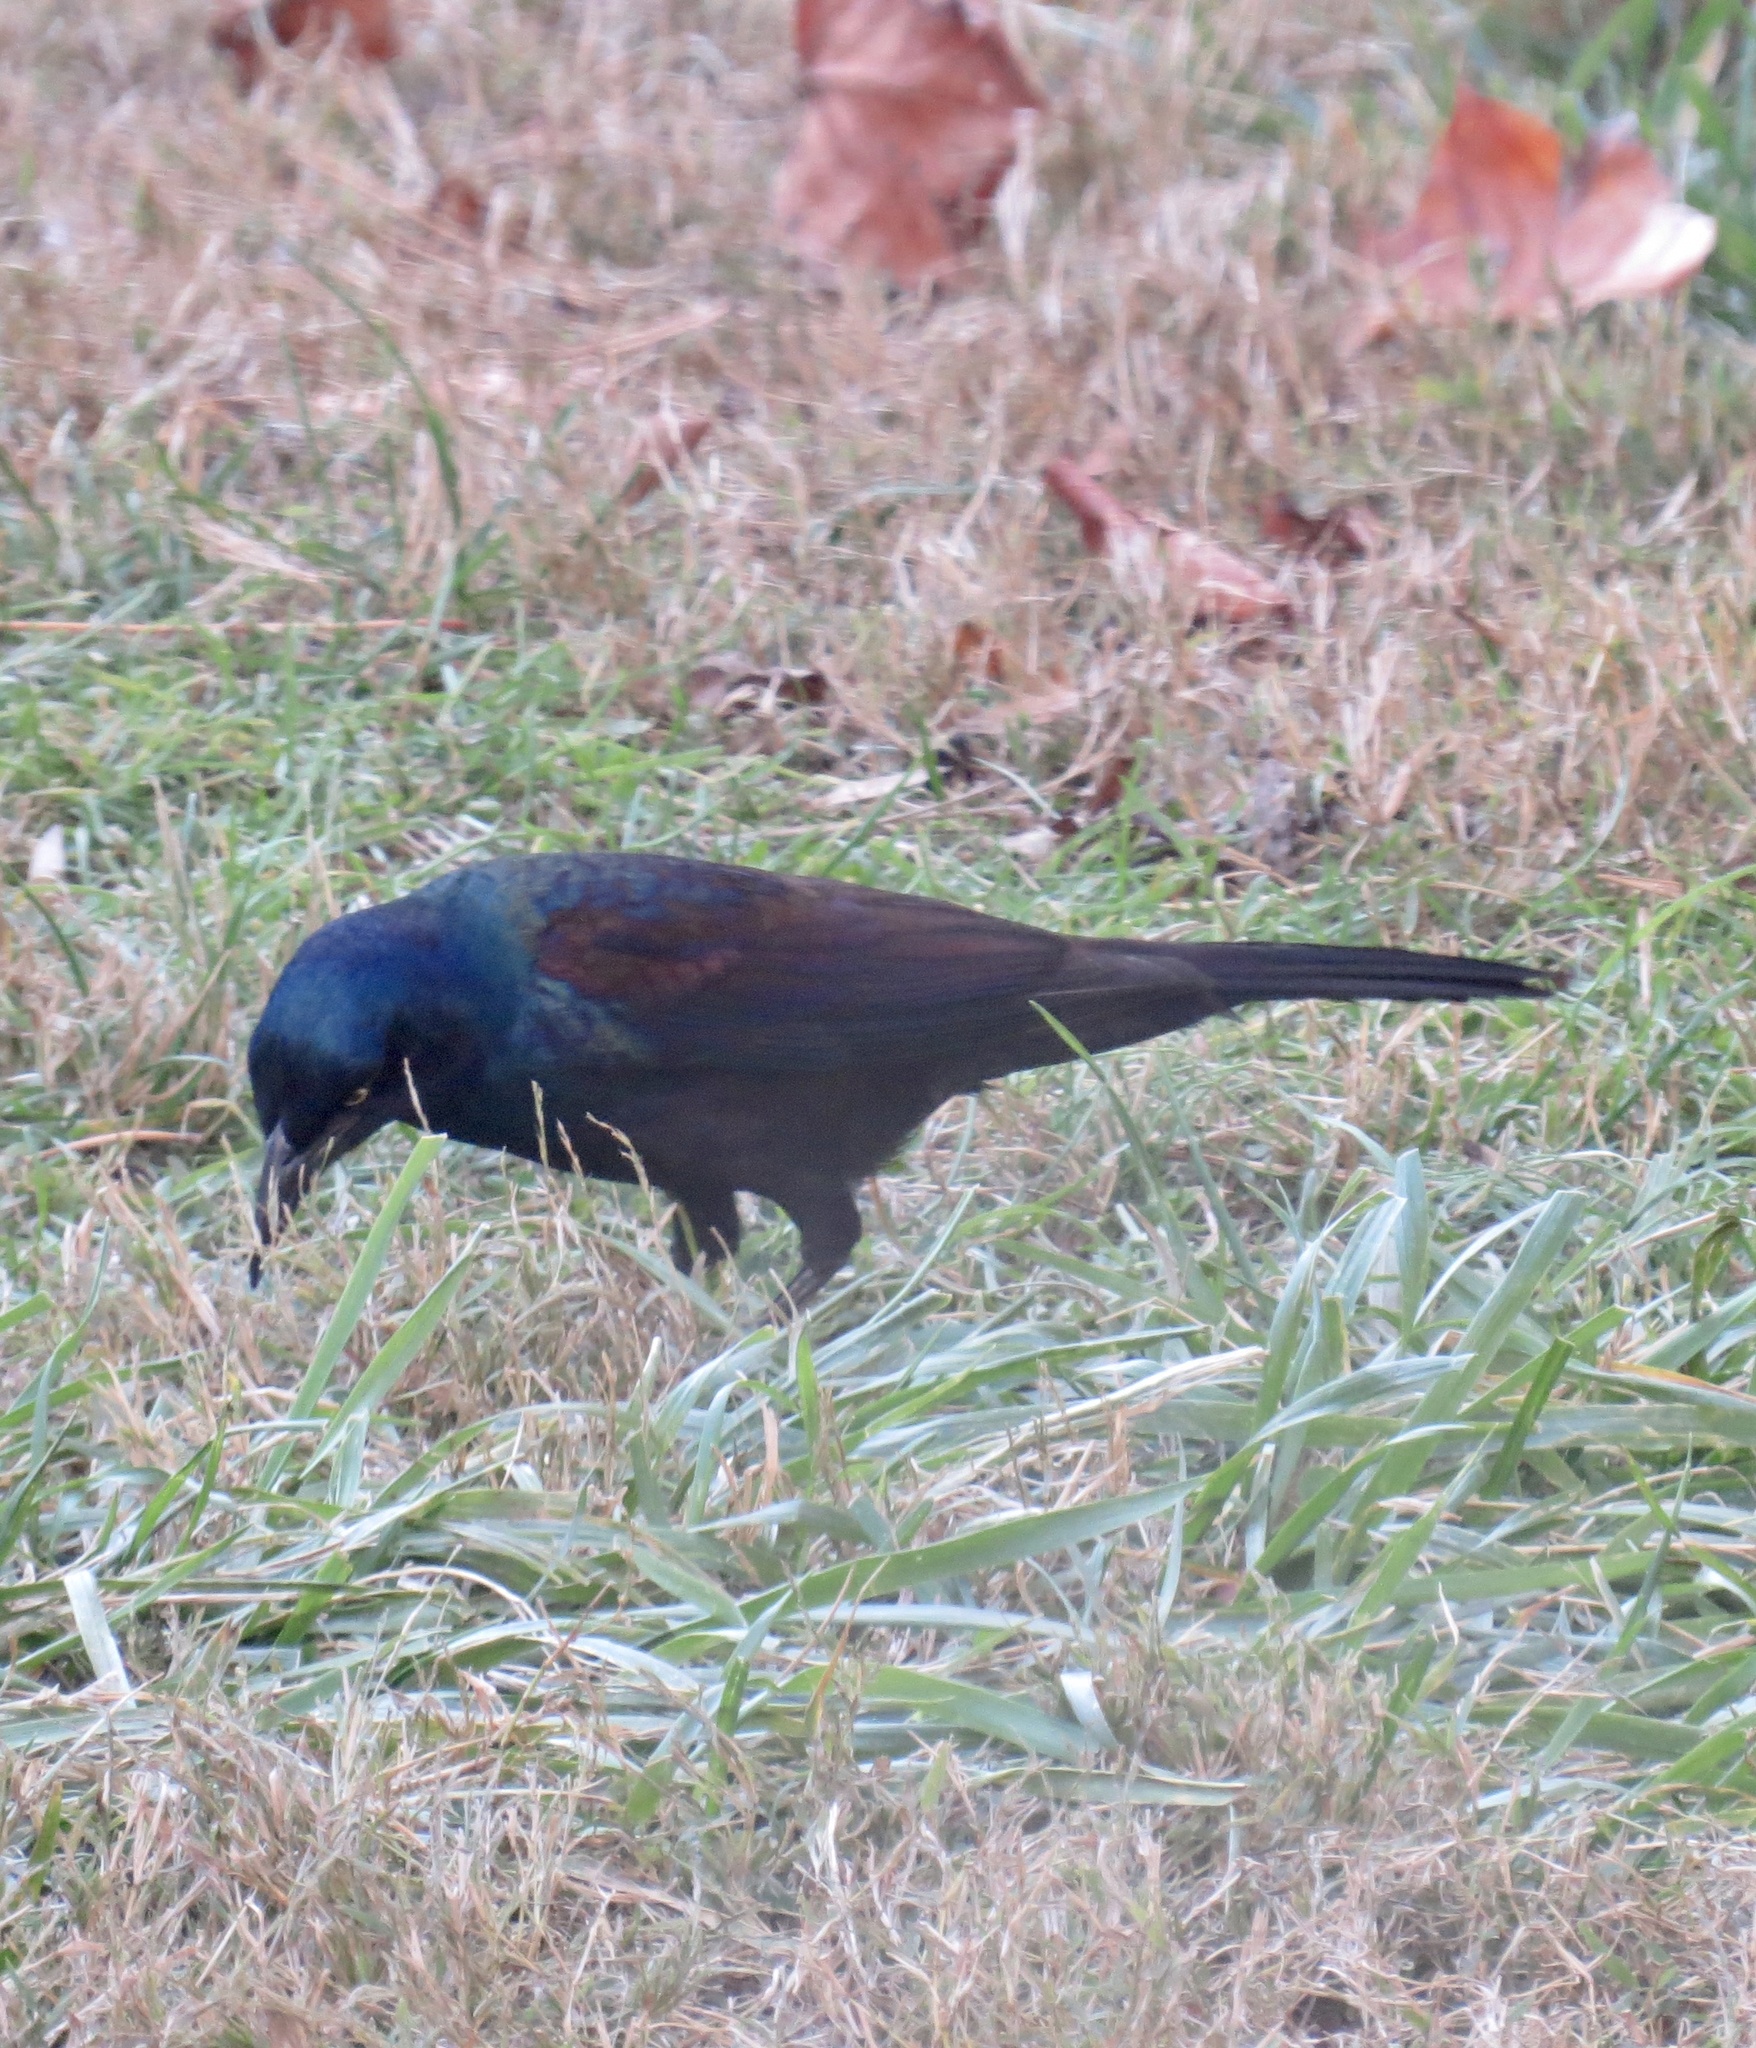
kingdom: Animalia
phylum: Chordata
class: Aves
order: Passeriformes
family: Icteridae
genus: Quiscalus
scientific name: Quiscalus quiscula
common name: Common grackle
